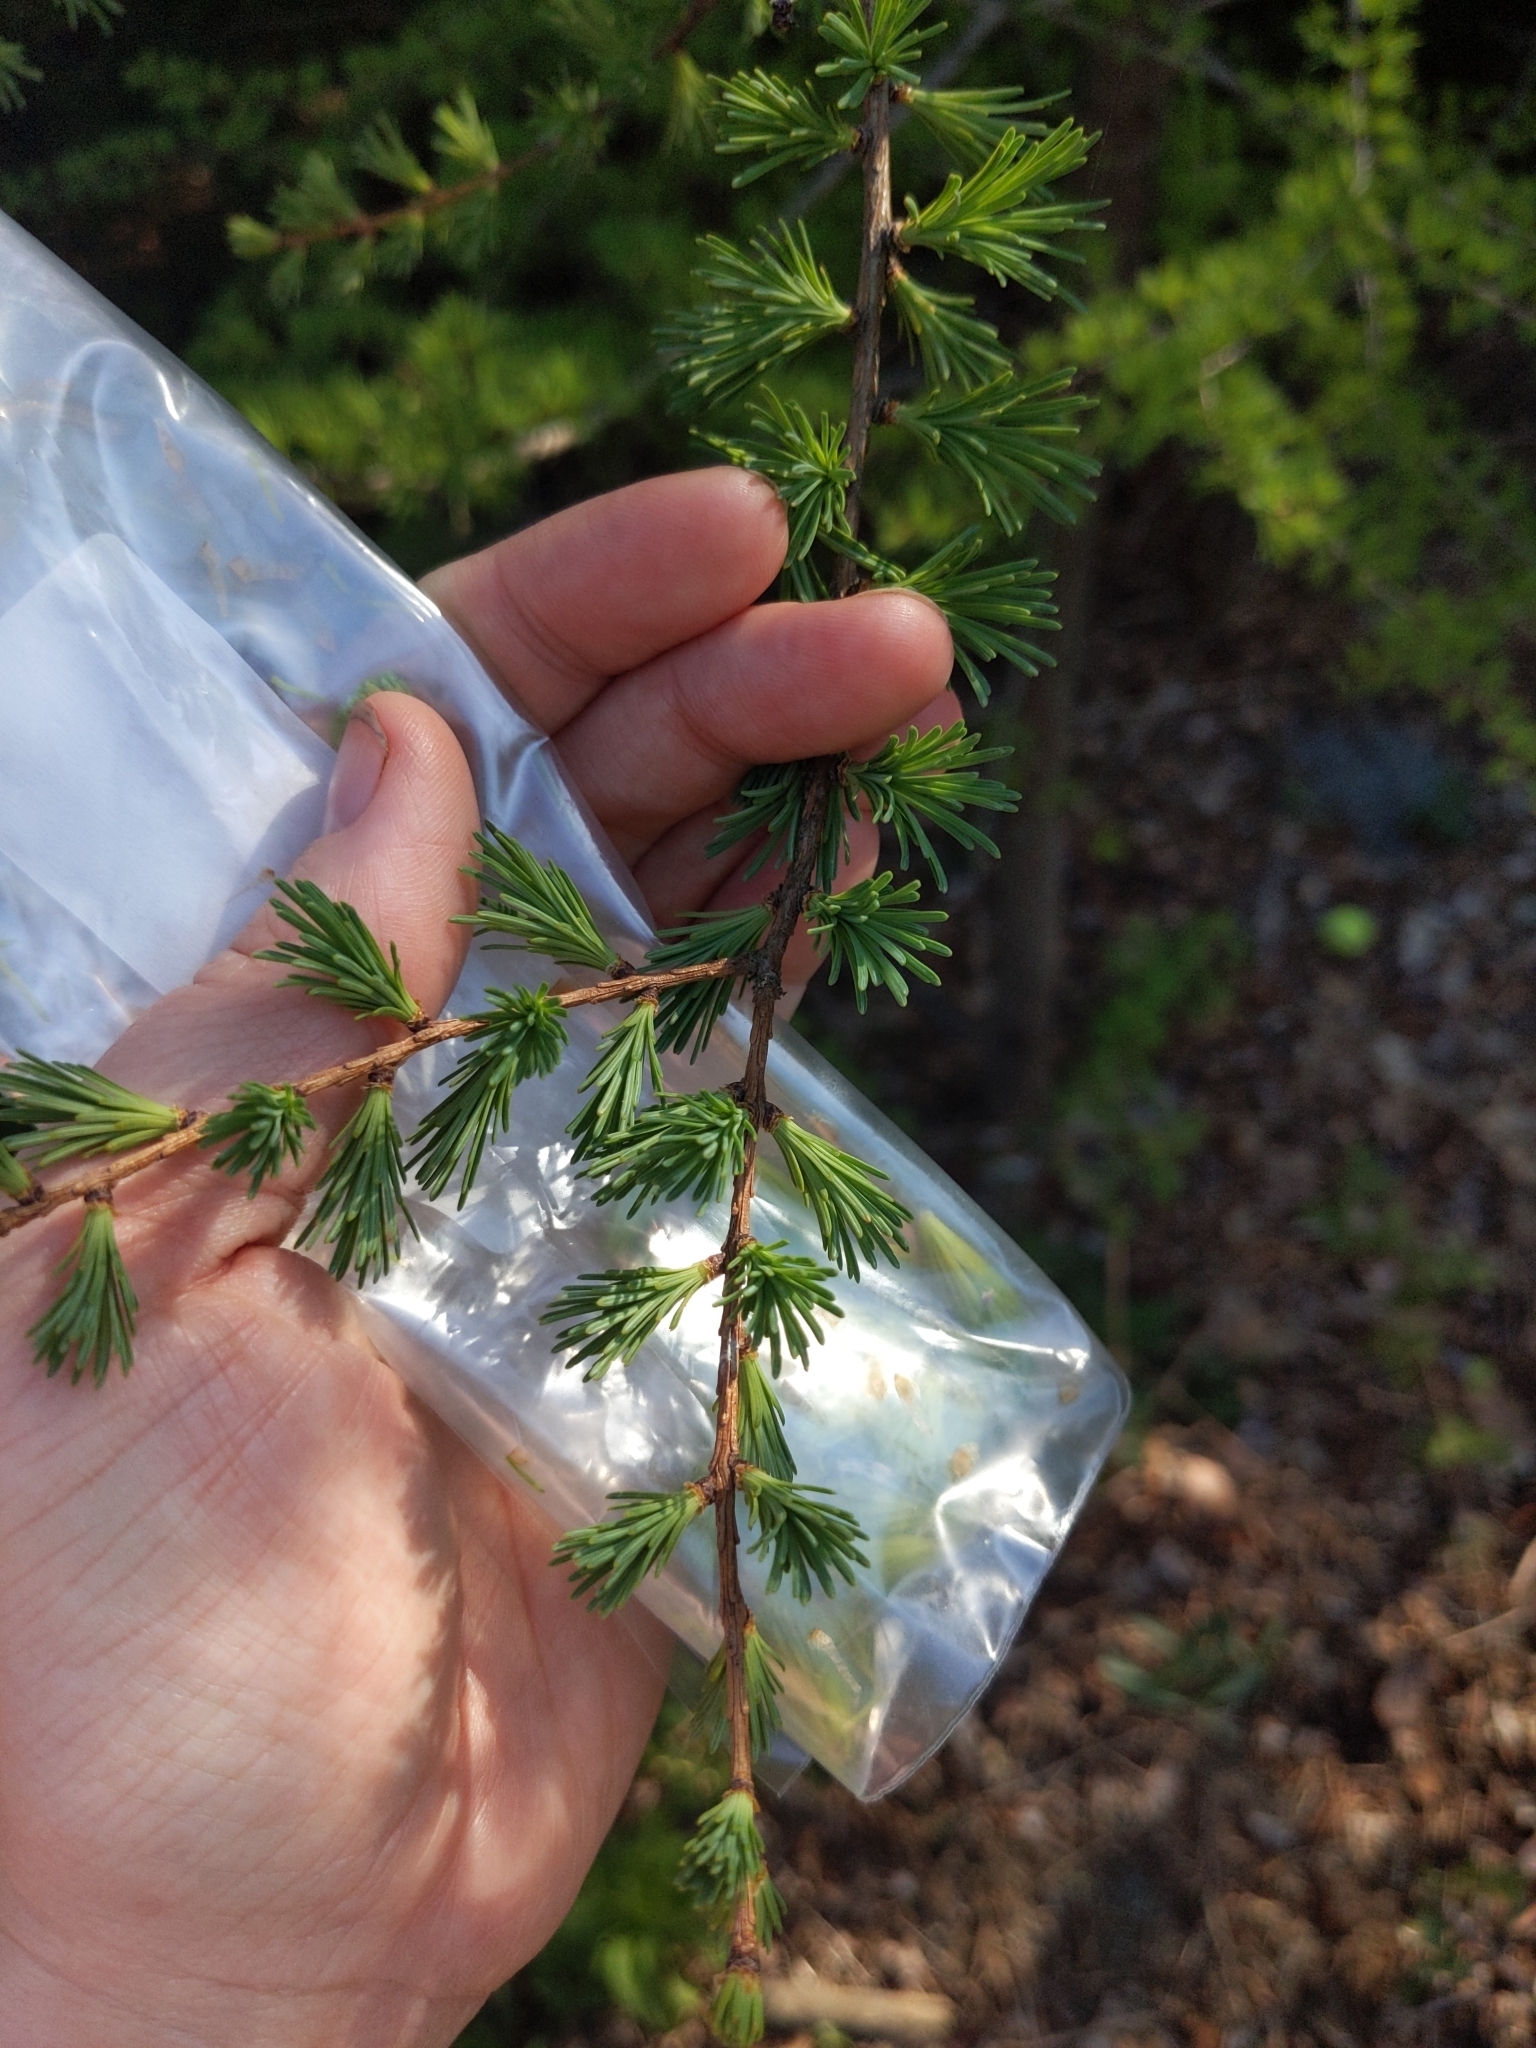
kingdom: Plantae
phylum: Tracheophyta
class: Pinopsida
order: Pinales
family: Pinaceae
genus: Larix
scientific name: Larix laricina
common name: American larch
